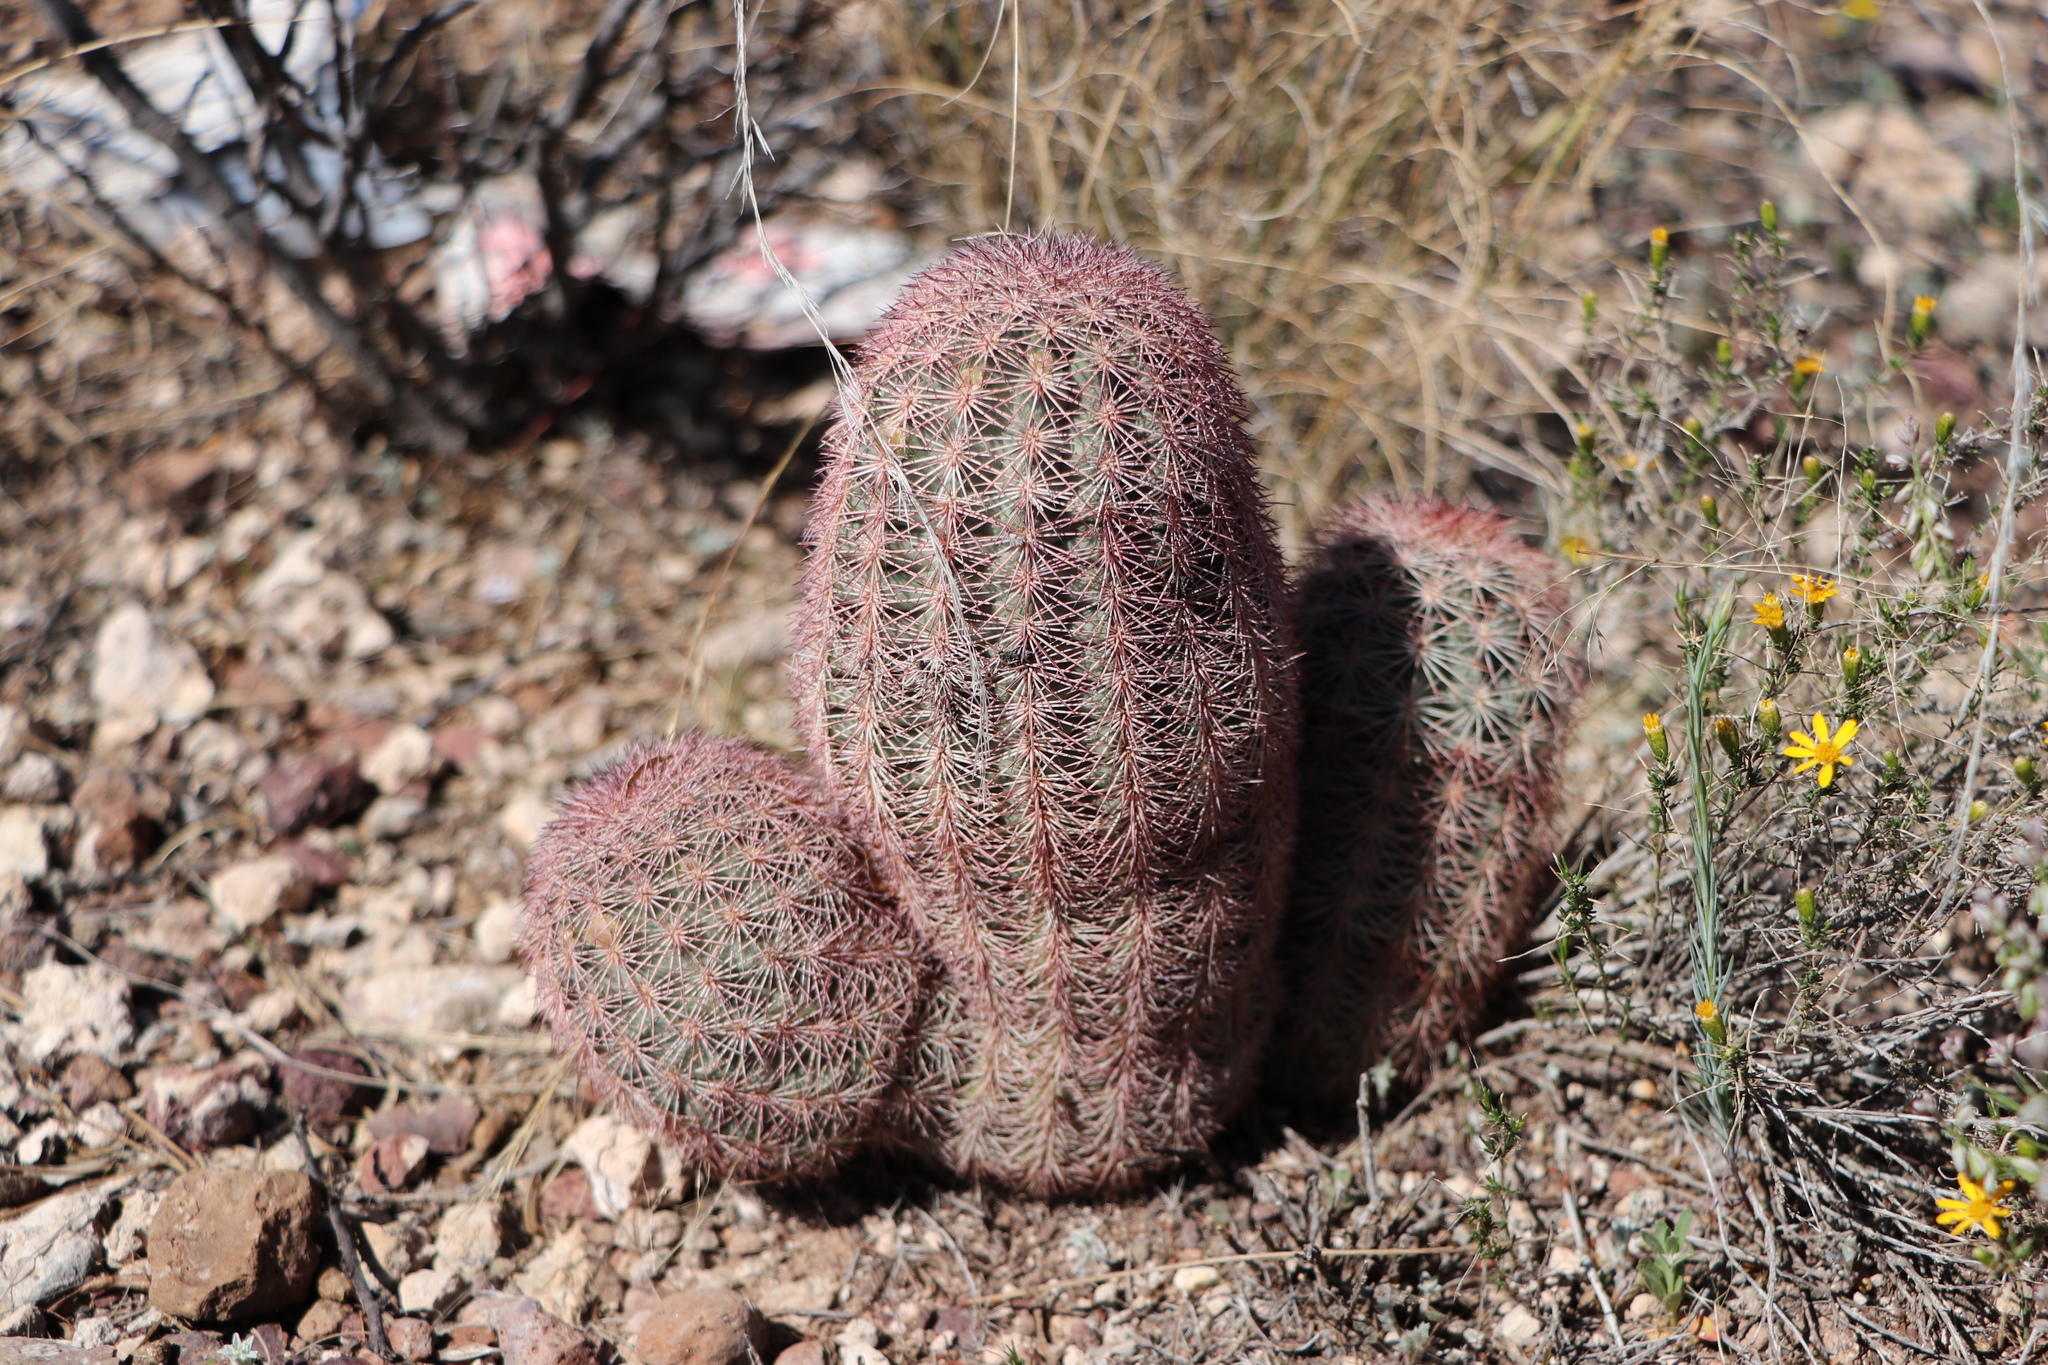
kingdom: Plantae
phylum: Tracheophyta
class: Magnoliopsida
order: Caryophyllales
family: Cactaceae
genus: Echinocereus
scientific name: Echinocereus dasyacanthus
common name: Spiny hedgehog cactus
